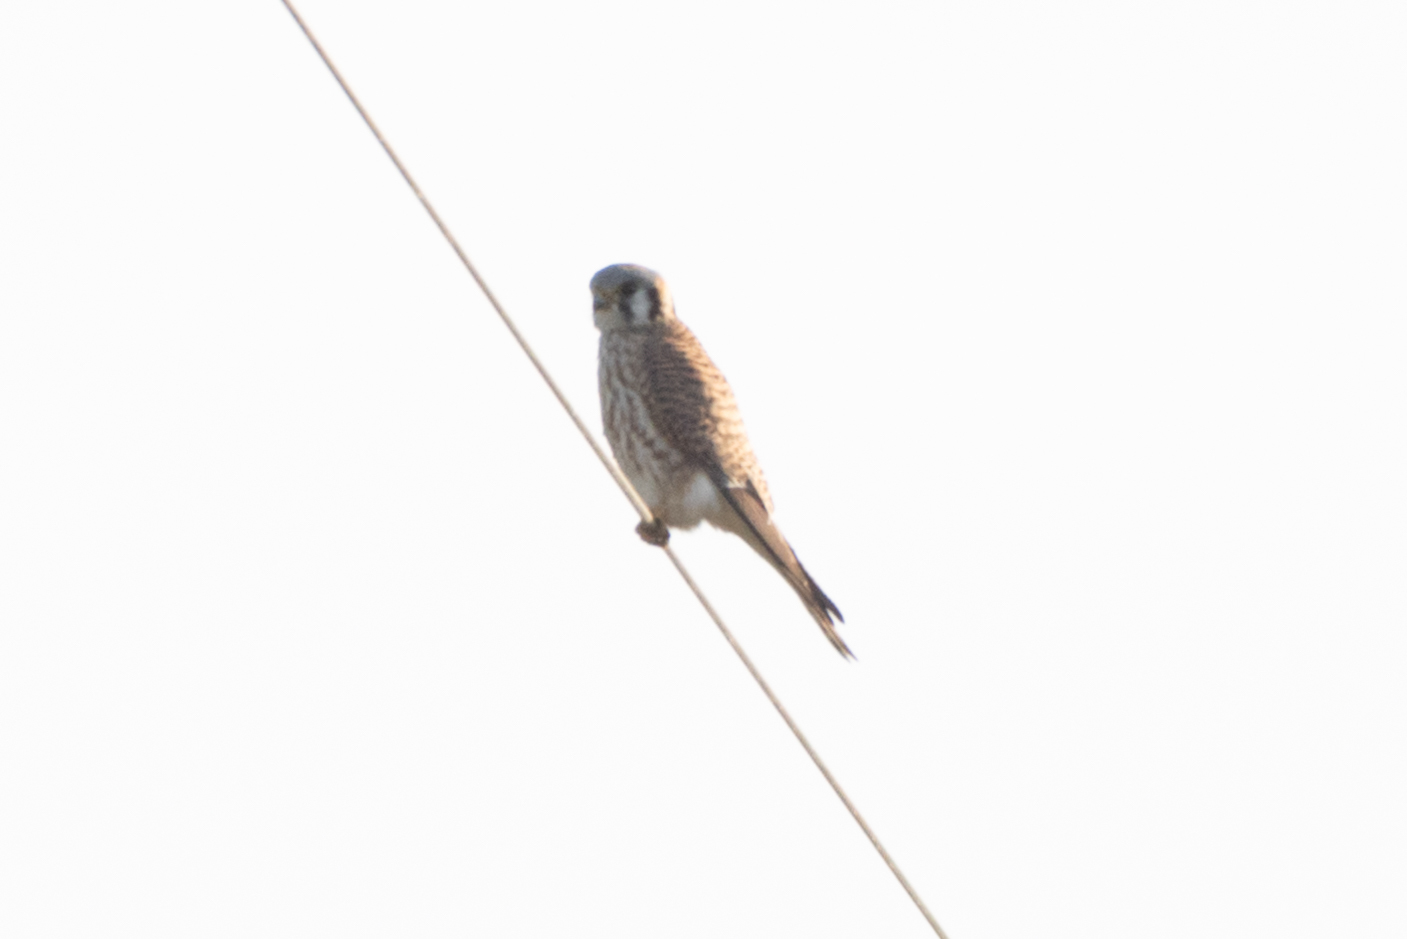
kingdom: Animalia
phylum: Chordata
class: Aves
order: Falconiformes
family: Falconidae
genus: Falco
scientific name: Falco sparverius
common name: American kestrel
